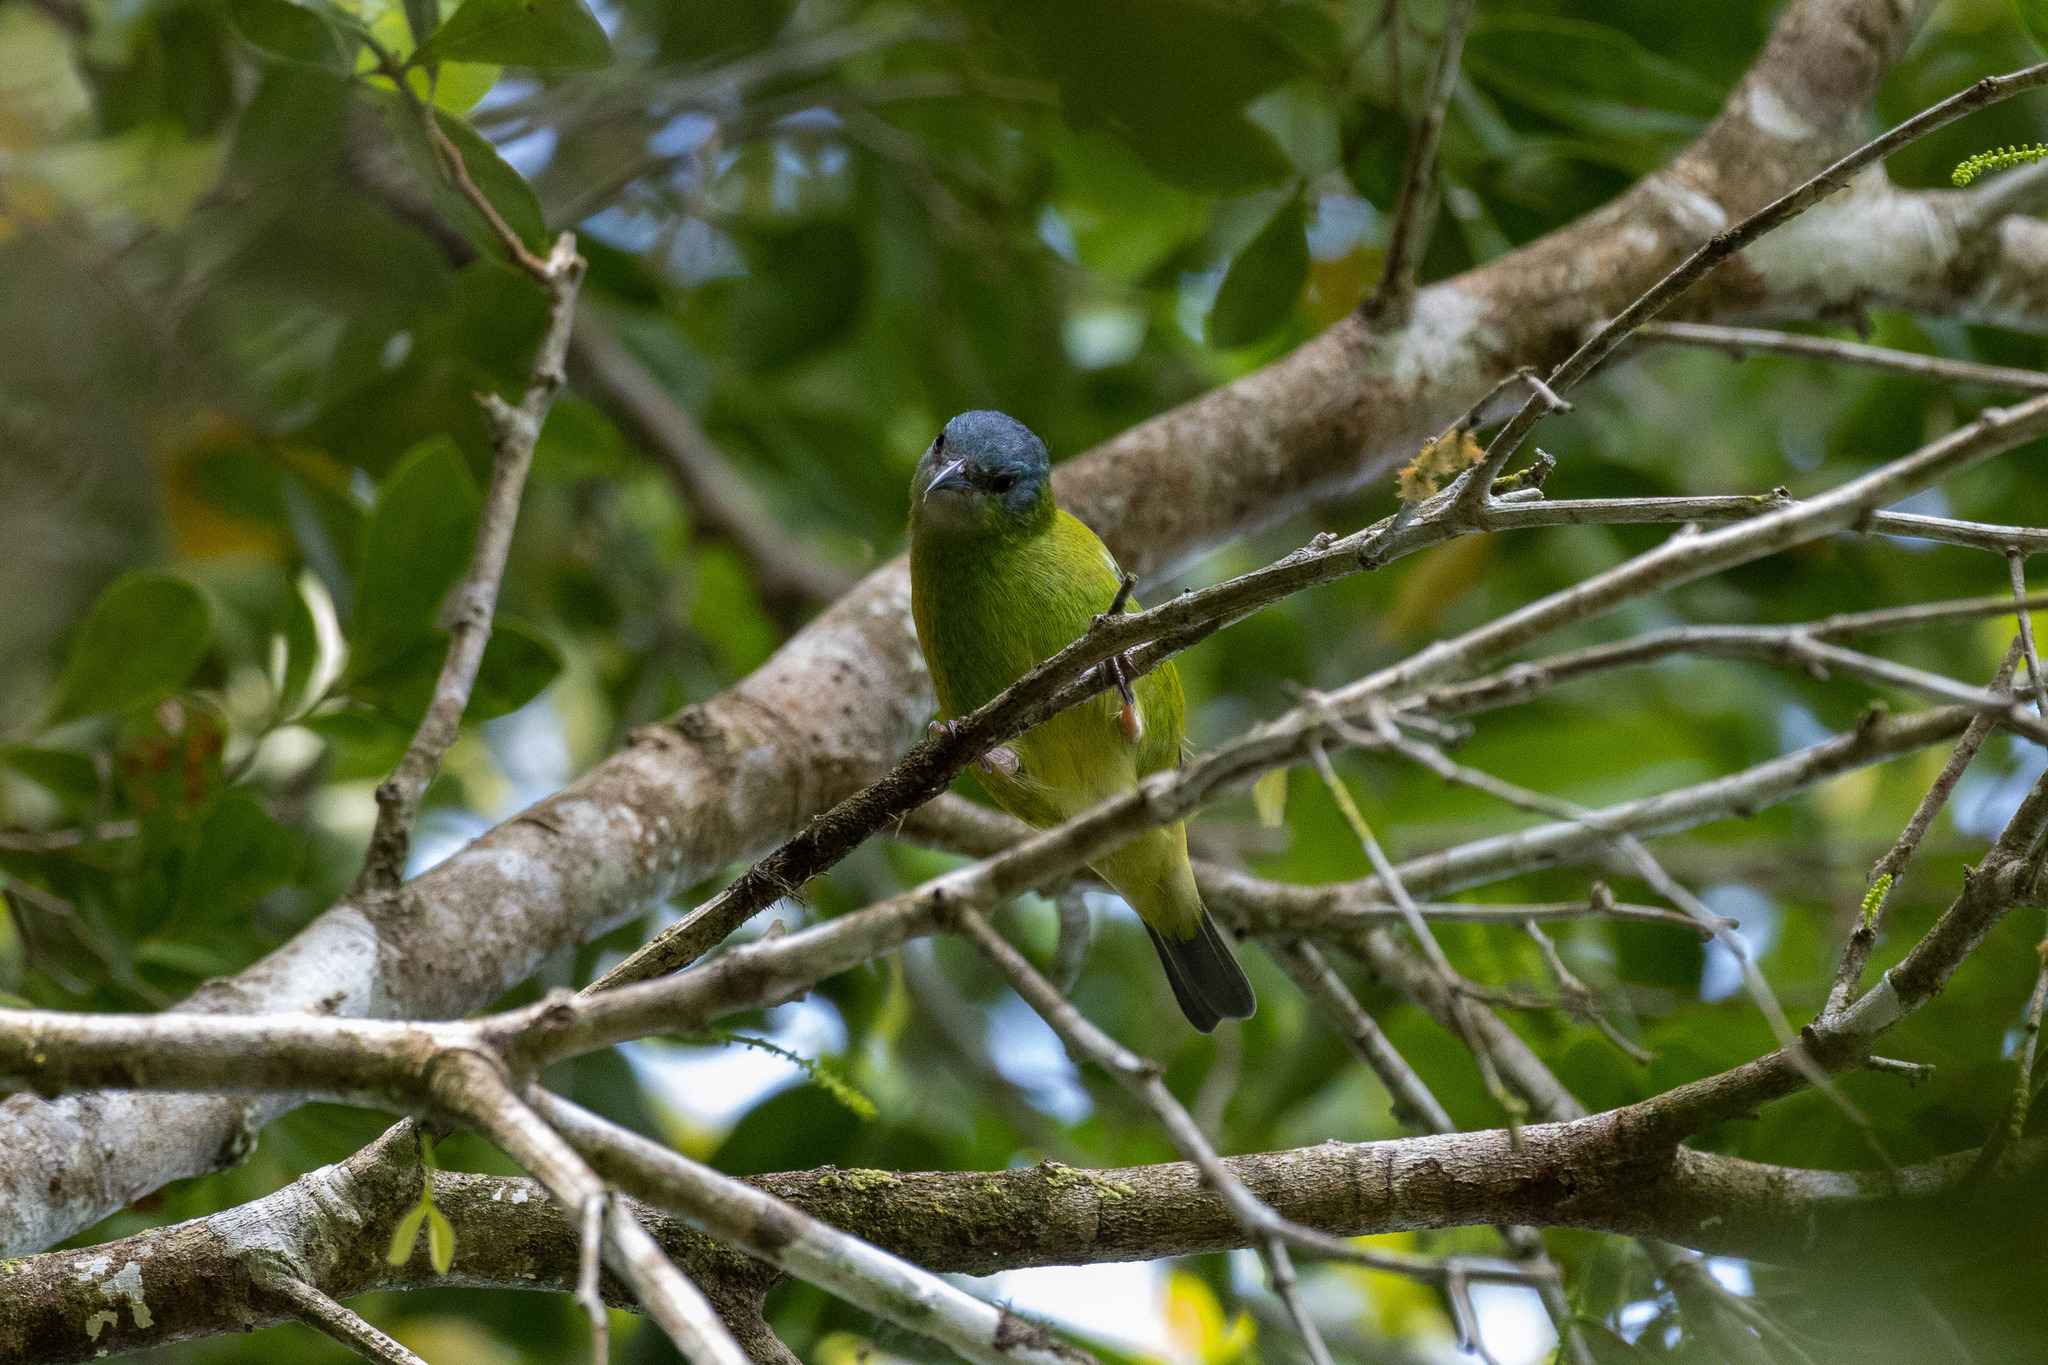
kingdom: Animalia
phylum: Chordata
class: Aves
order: Passeriformes
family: Thraupidae
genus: Dacnis
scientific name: Dacnis cayana
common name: Blue dacnis
